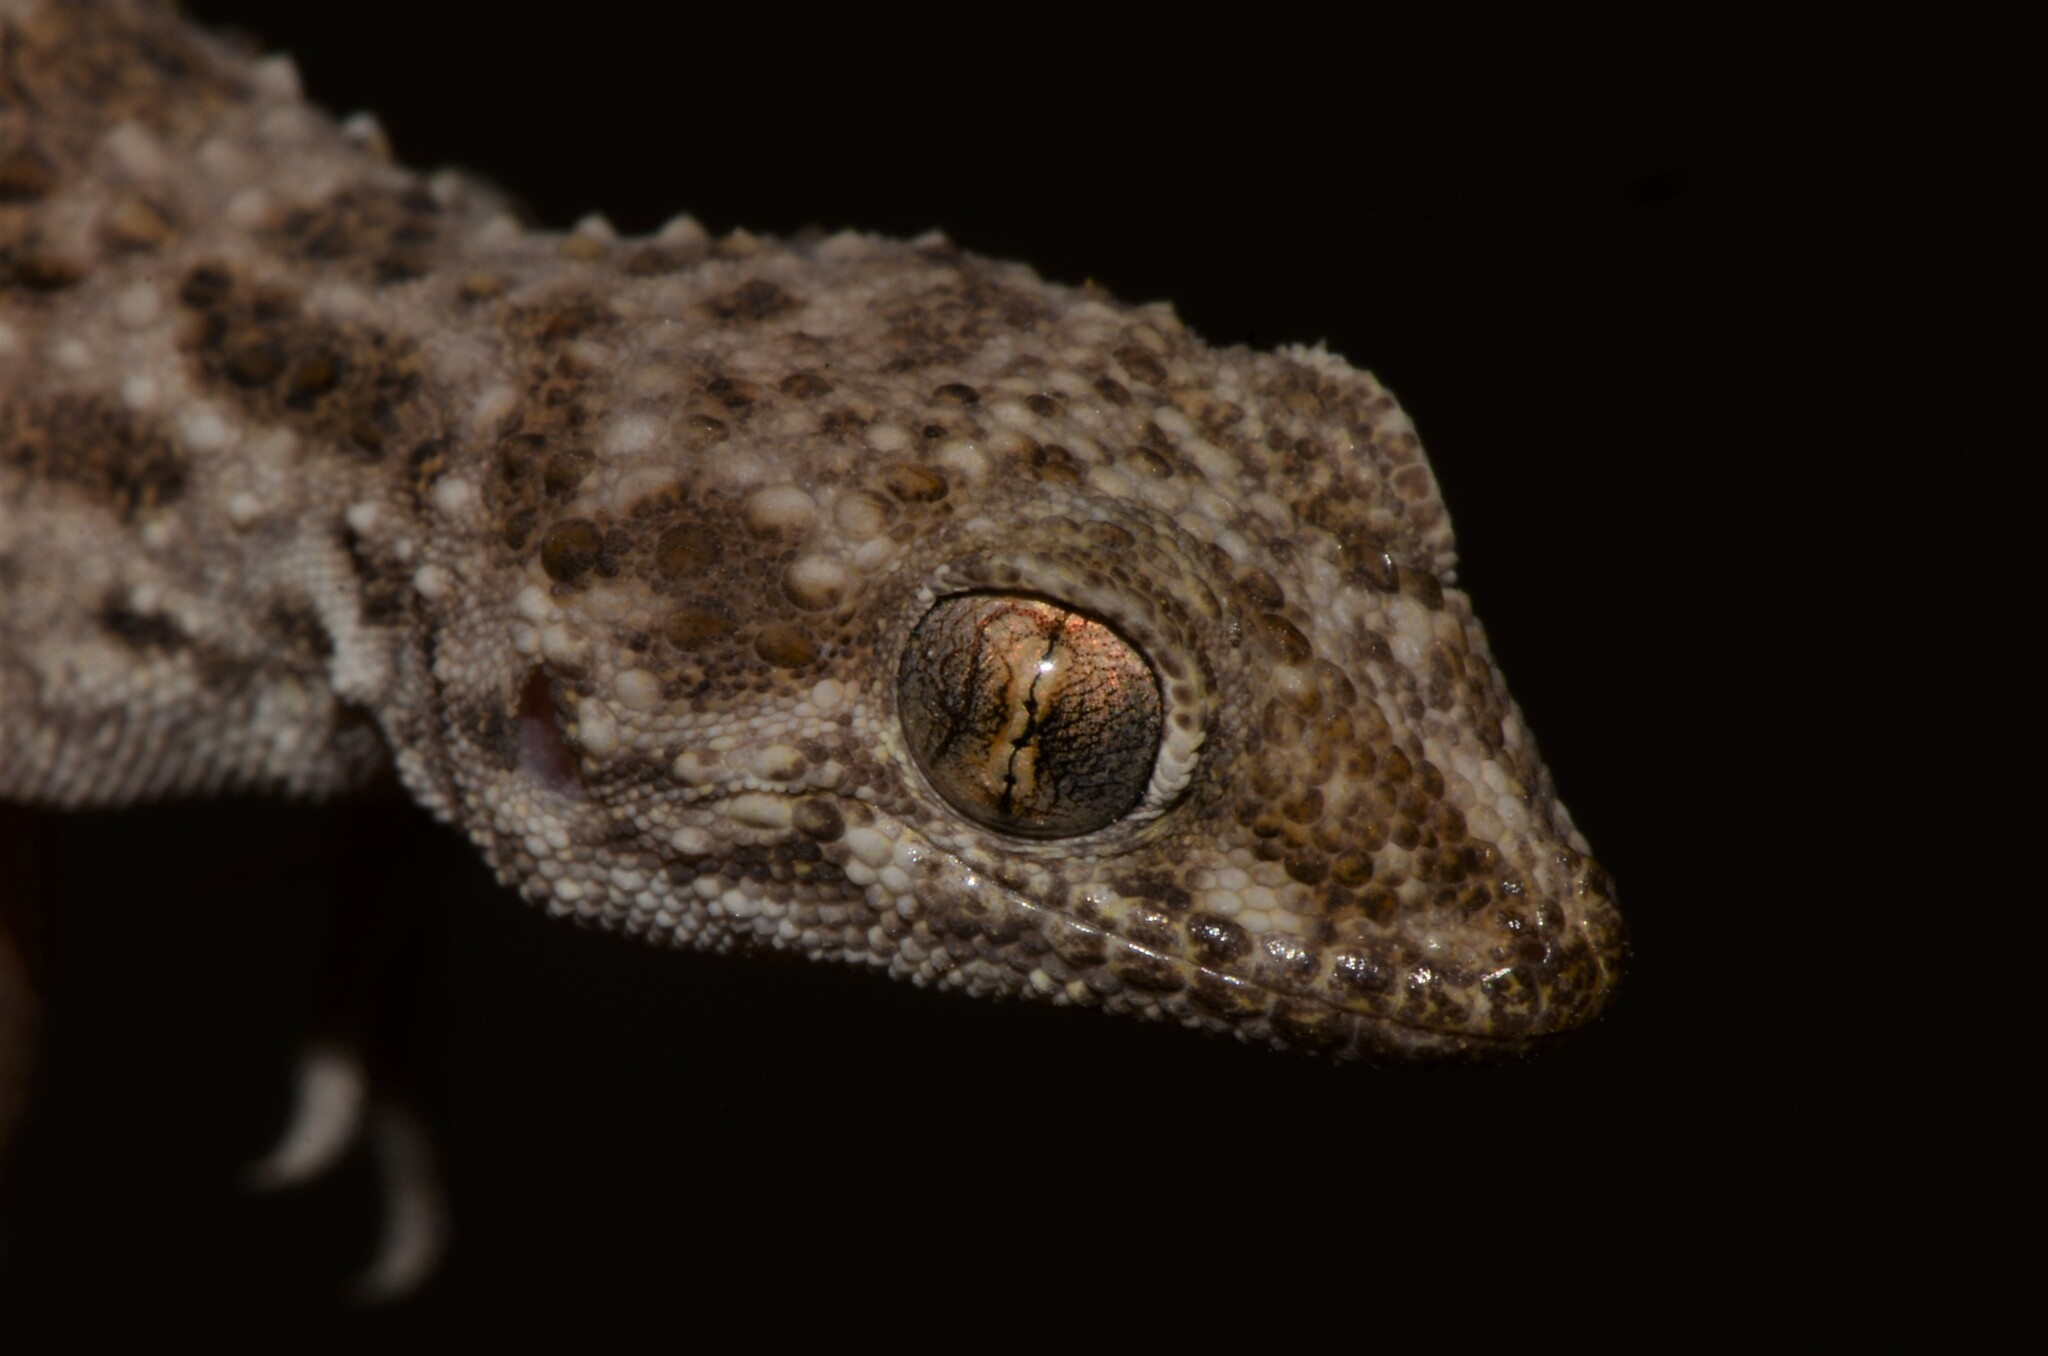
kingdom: Animalia
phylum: Chordata
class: Squamata
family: Gekkonidae
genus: Bunopus
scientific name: Bunopus tuberculatus
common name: Southern tuberculated gecko
